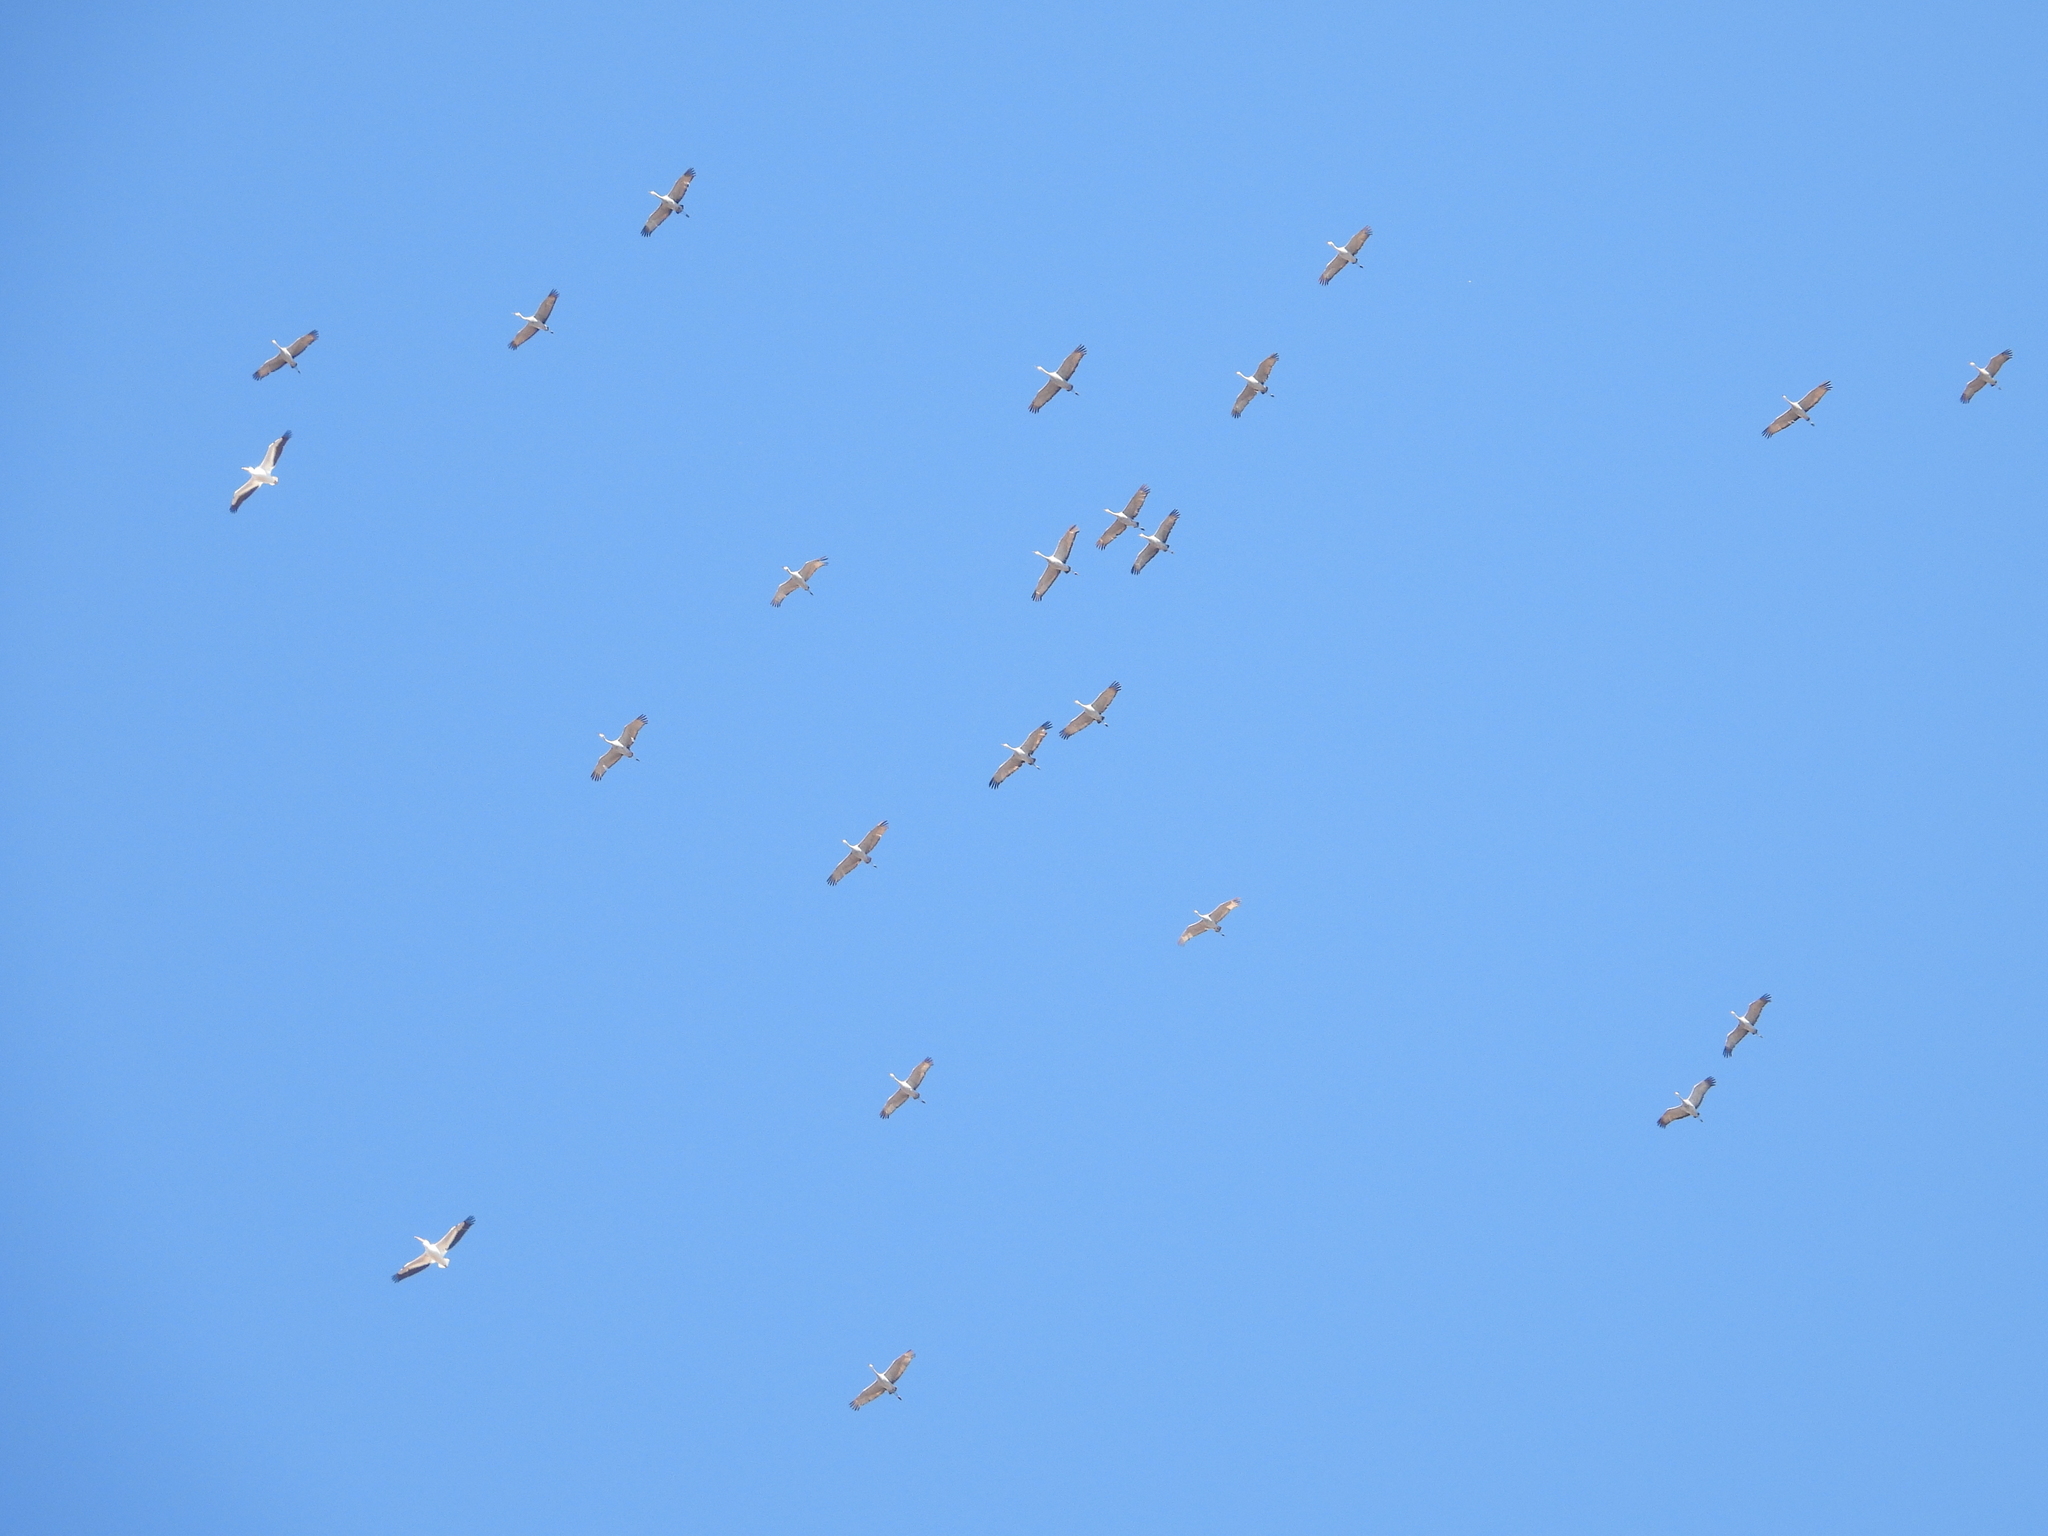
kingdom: Animalia
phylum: Chordata
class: Aves
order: Gruiformes
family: Gruidae
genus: Grus
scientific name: Grus canadensis
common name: Sandhill crane
